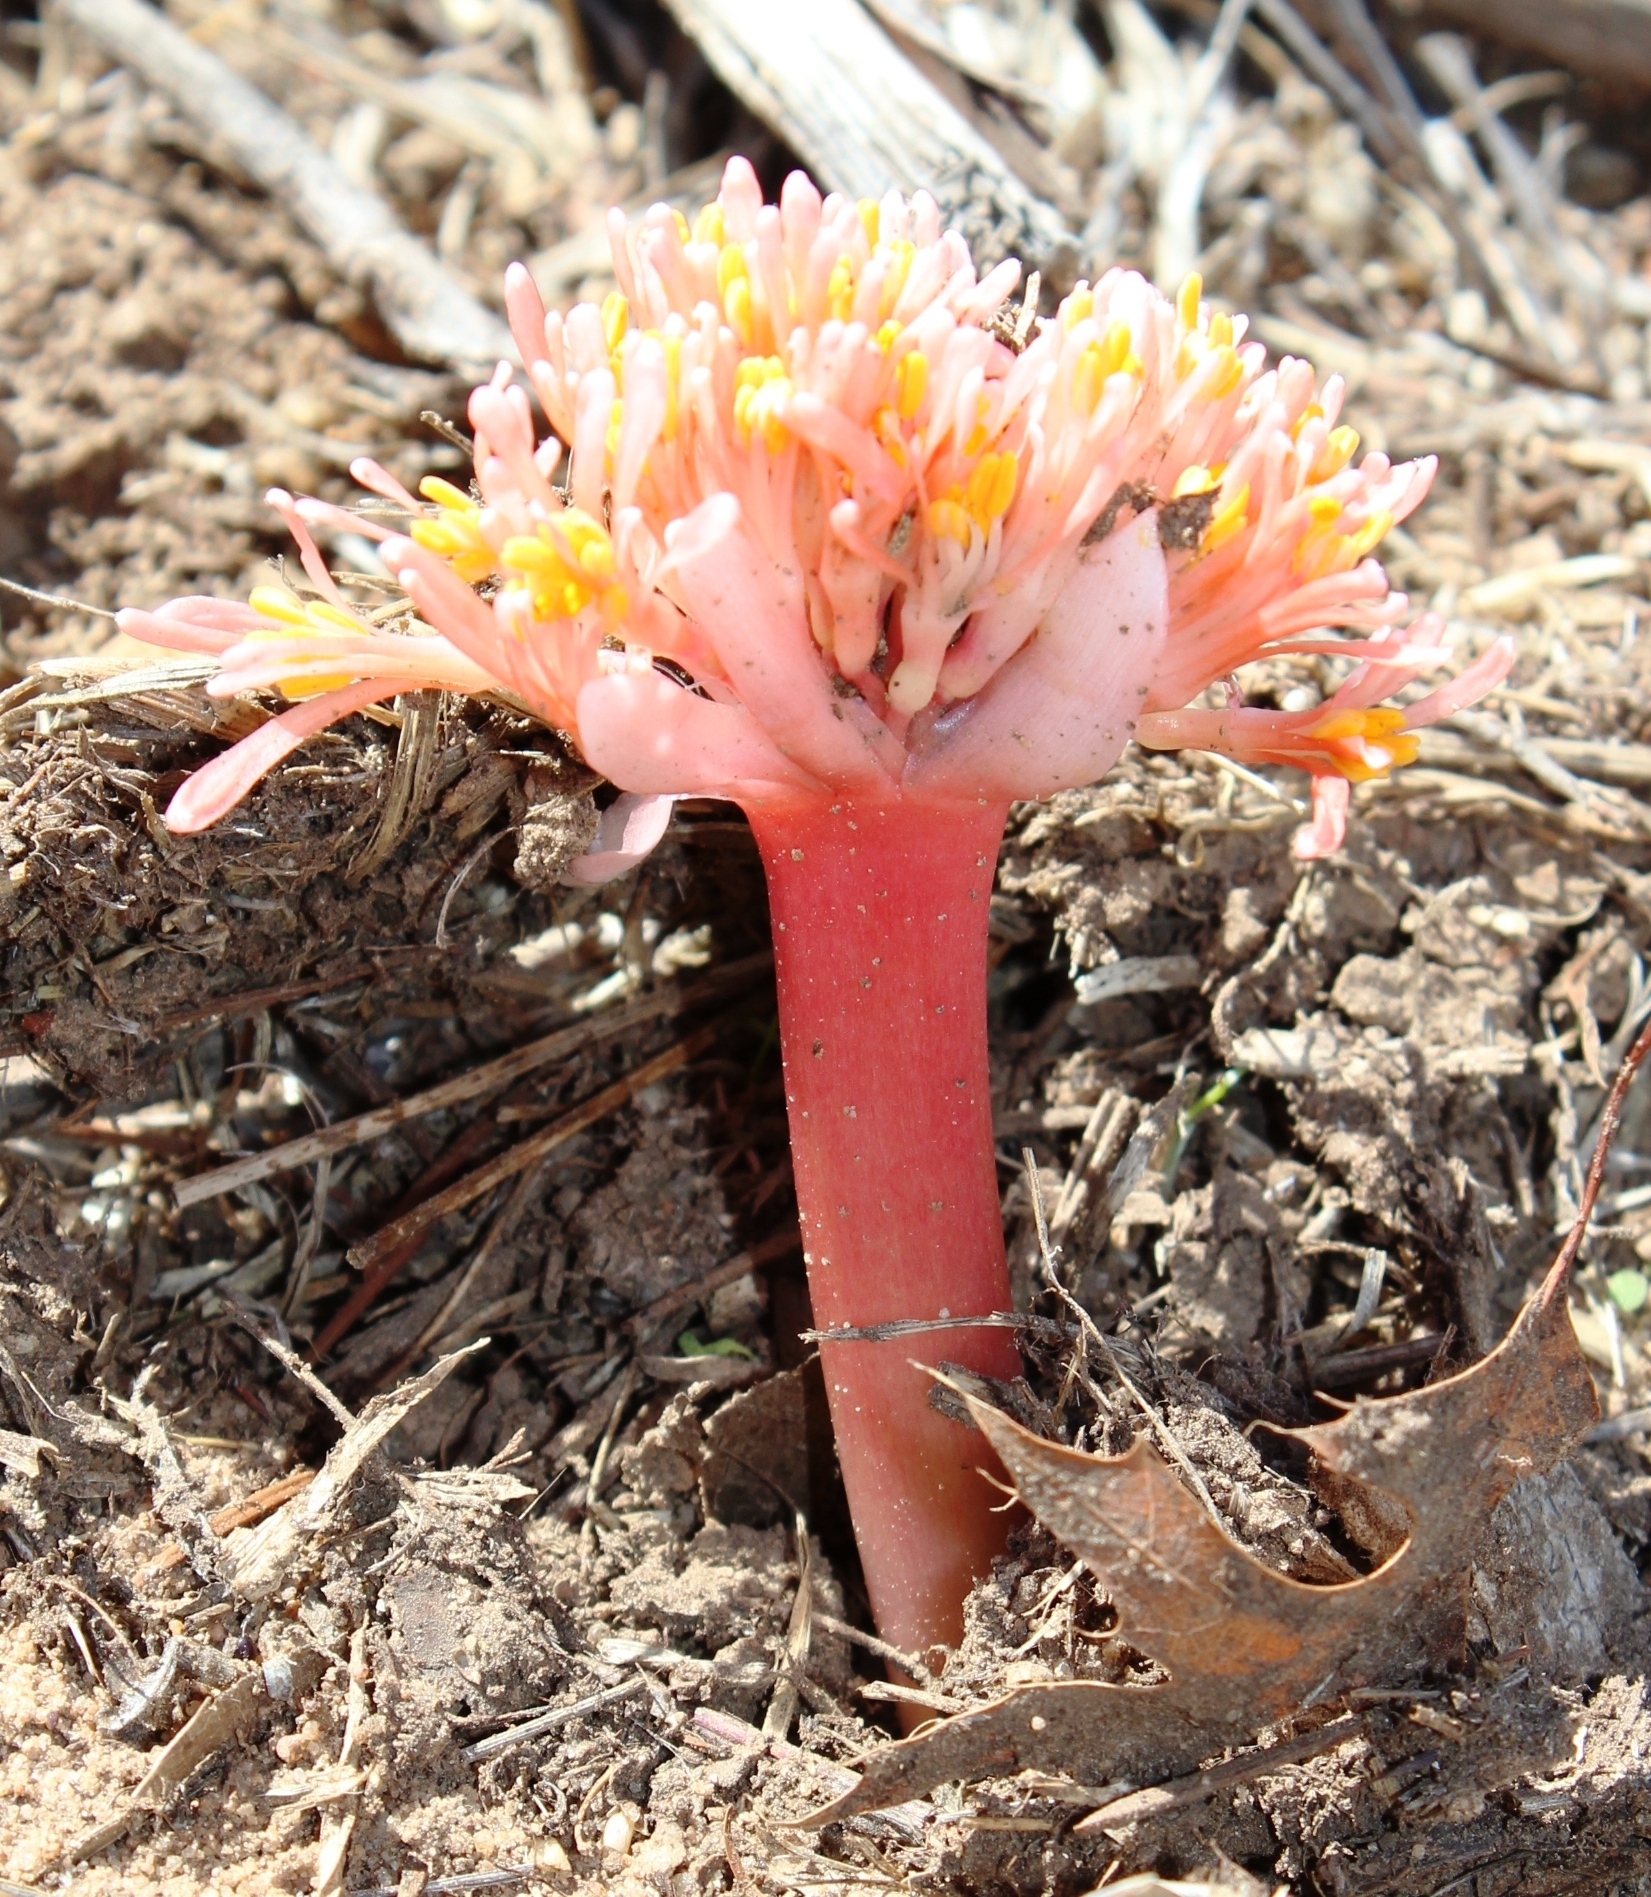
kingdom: Plantae
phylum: Tracheophyta
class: Liliopsida
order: Asparagales
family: Amaryllidaceae
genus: Haemanthus
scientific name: Haemanthus sanguineus
